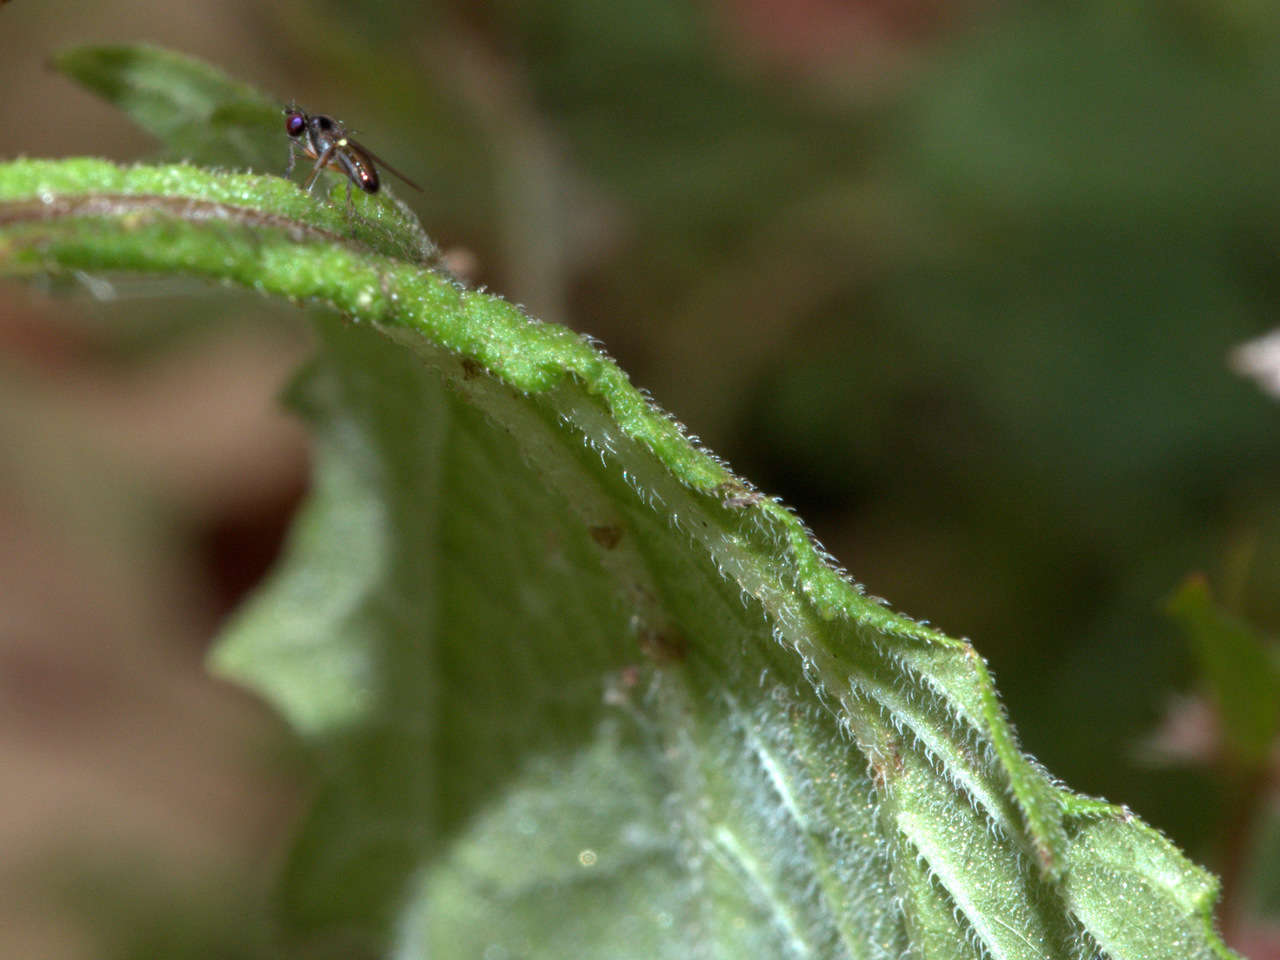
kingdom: Plantae
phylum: Tracheophyta
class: Magnoliopsida
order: Asterales
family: Asteraceae
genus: Sigesbeckia
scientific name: Sigesbeckia orientalis
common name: Eastern st paul's-wort
